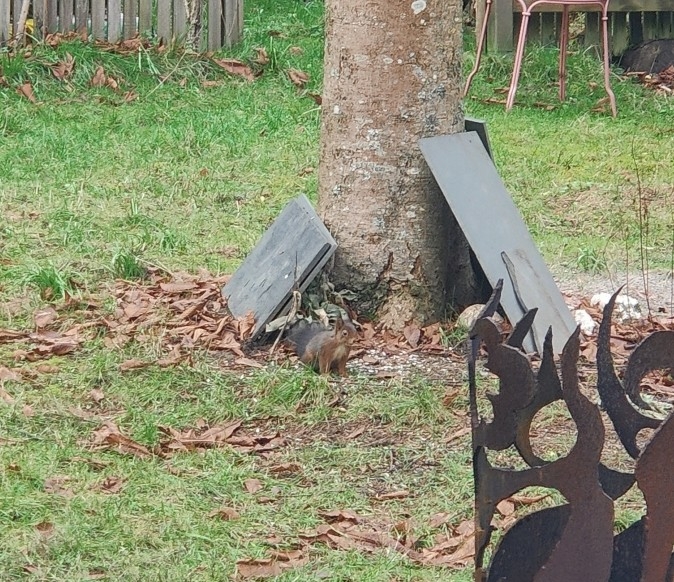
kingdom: Animalia
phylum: Chordata
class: Mammalia
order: Rodentia
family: Sciuridae
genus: Sciurus
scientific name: Sciurus vulgaris
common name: Eurasian red squirrel
